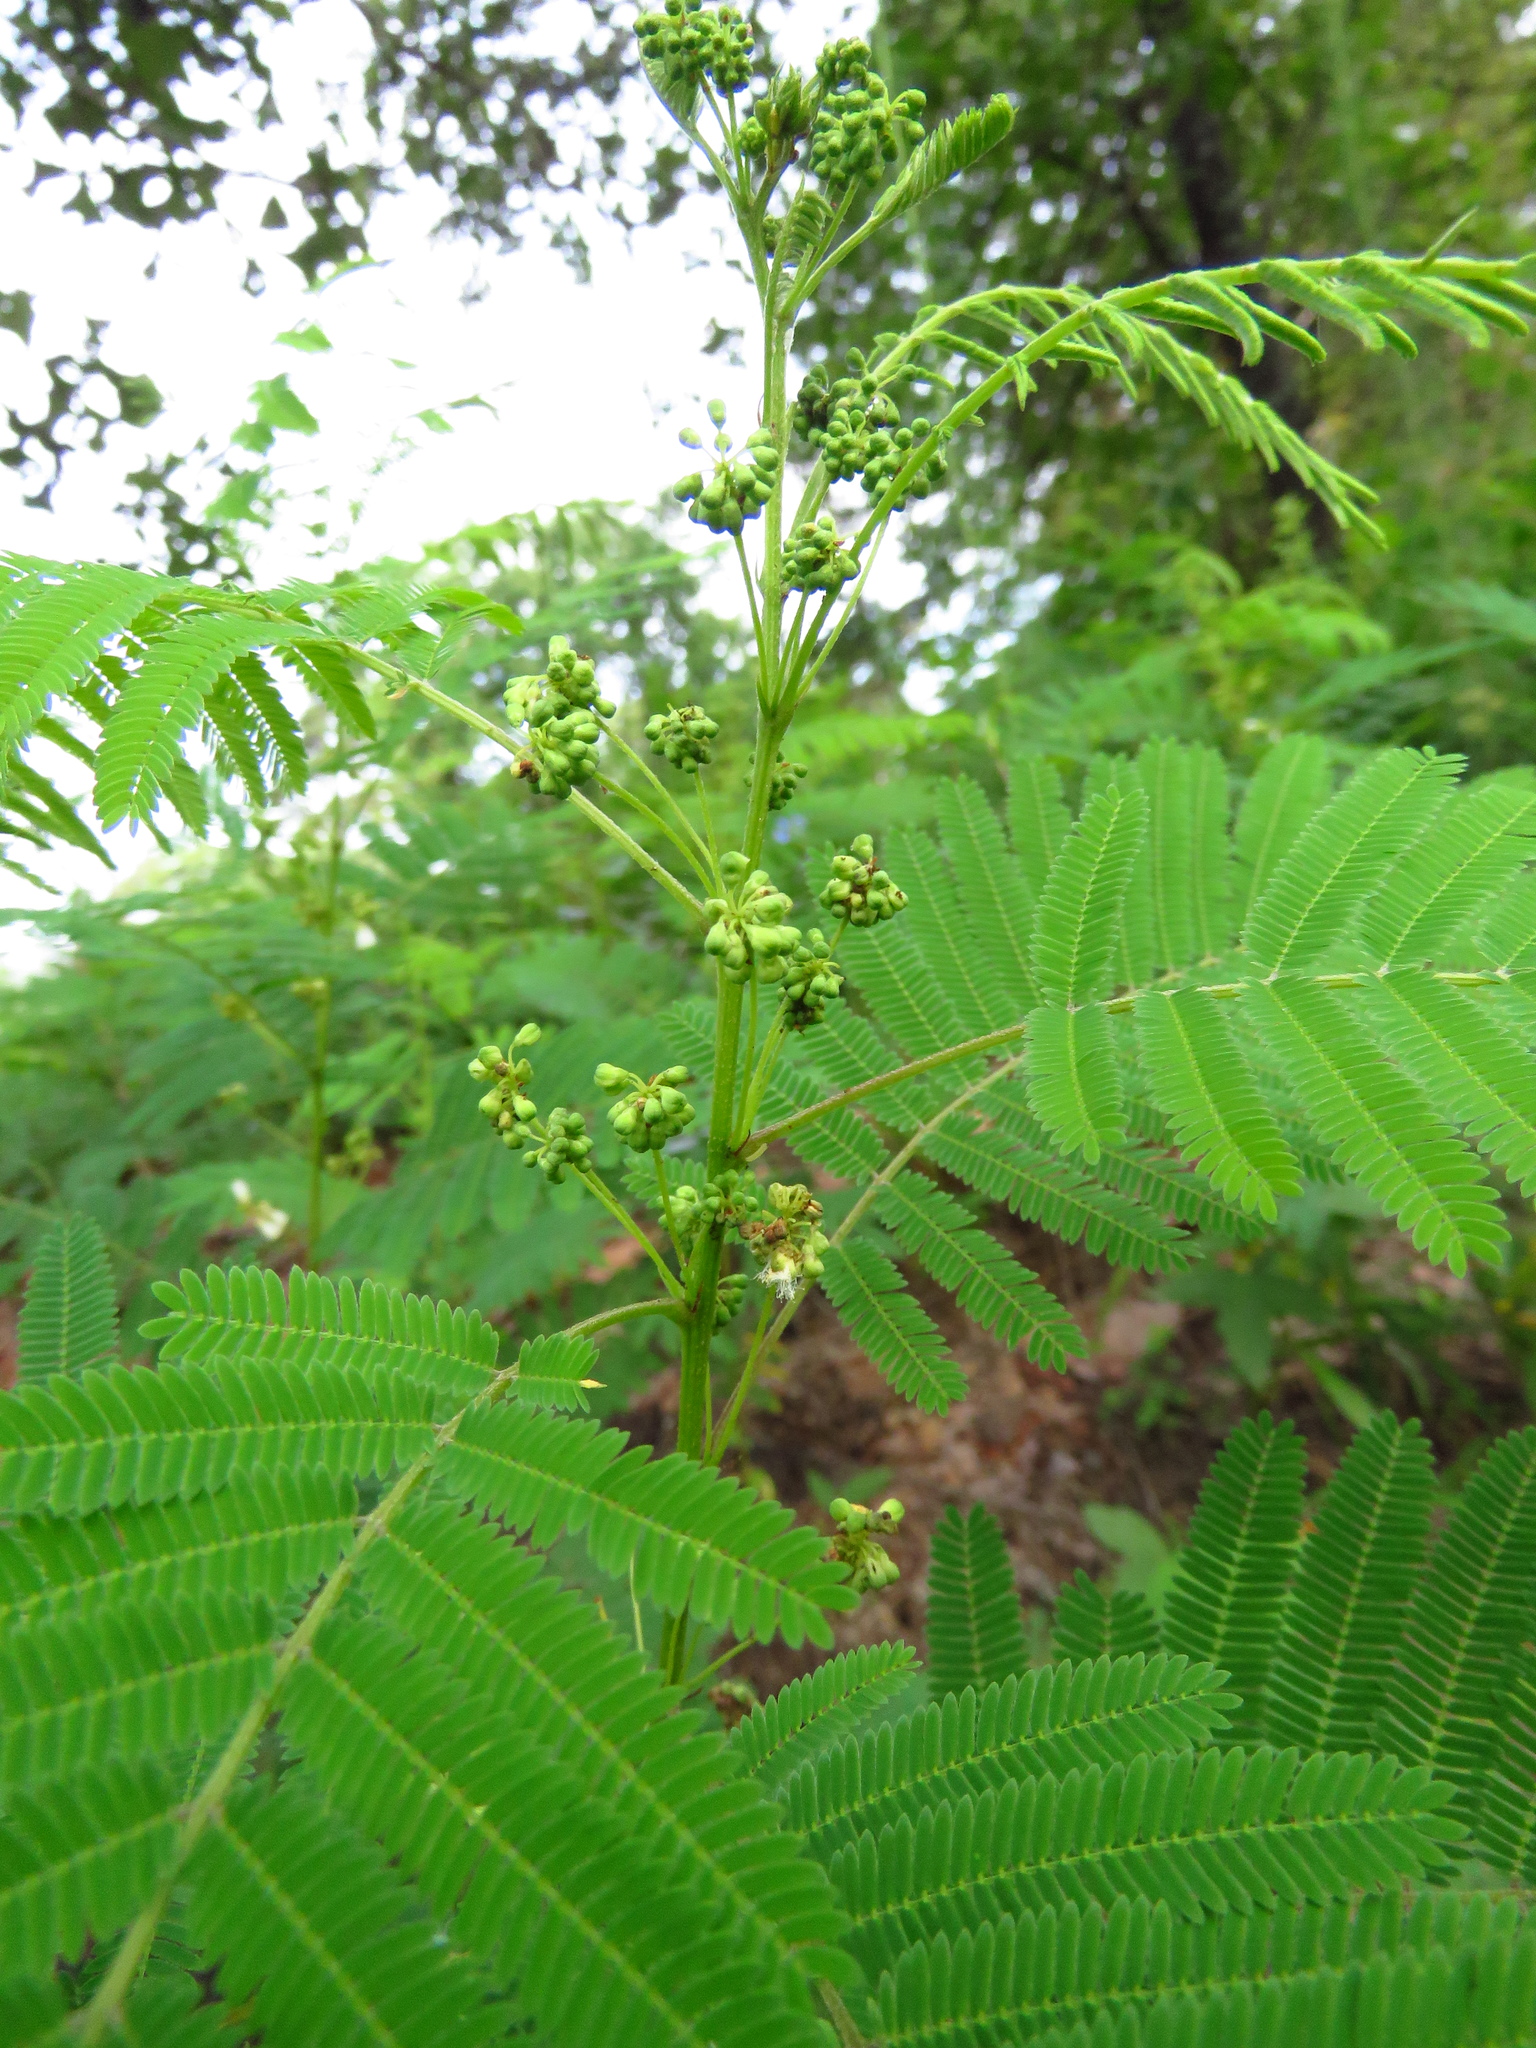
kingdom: Plantae
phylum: Tracheophyta
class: Magnoliopsida
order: Fabales
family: Fabaceae
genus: Acaciella
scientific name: Acaciella angustissima
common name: Prairie acacia
